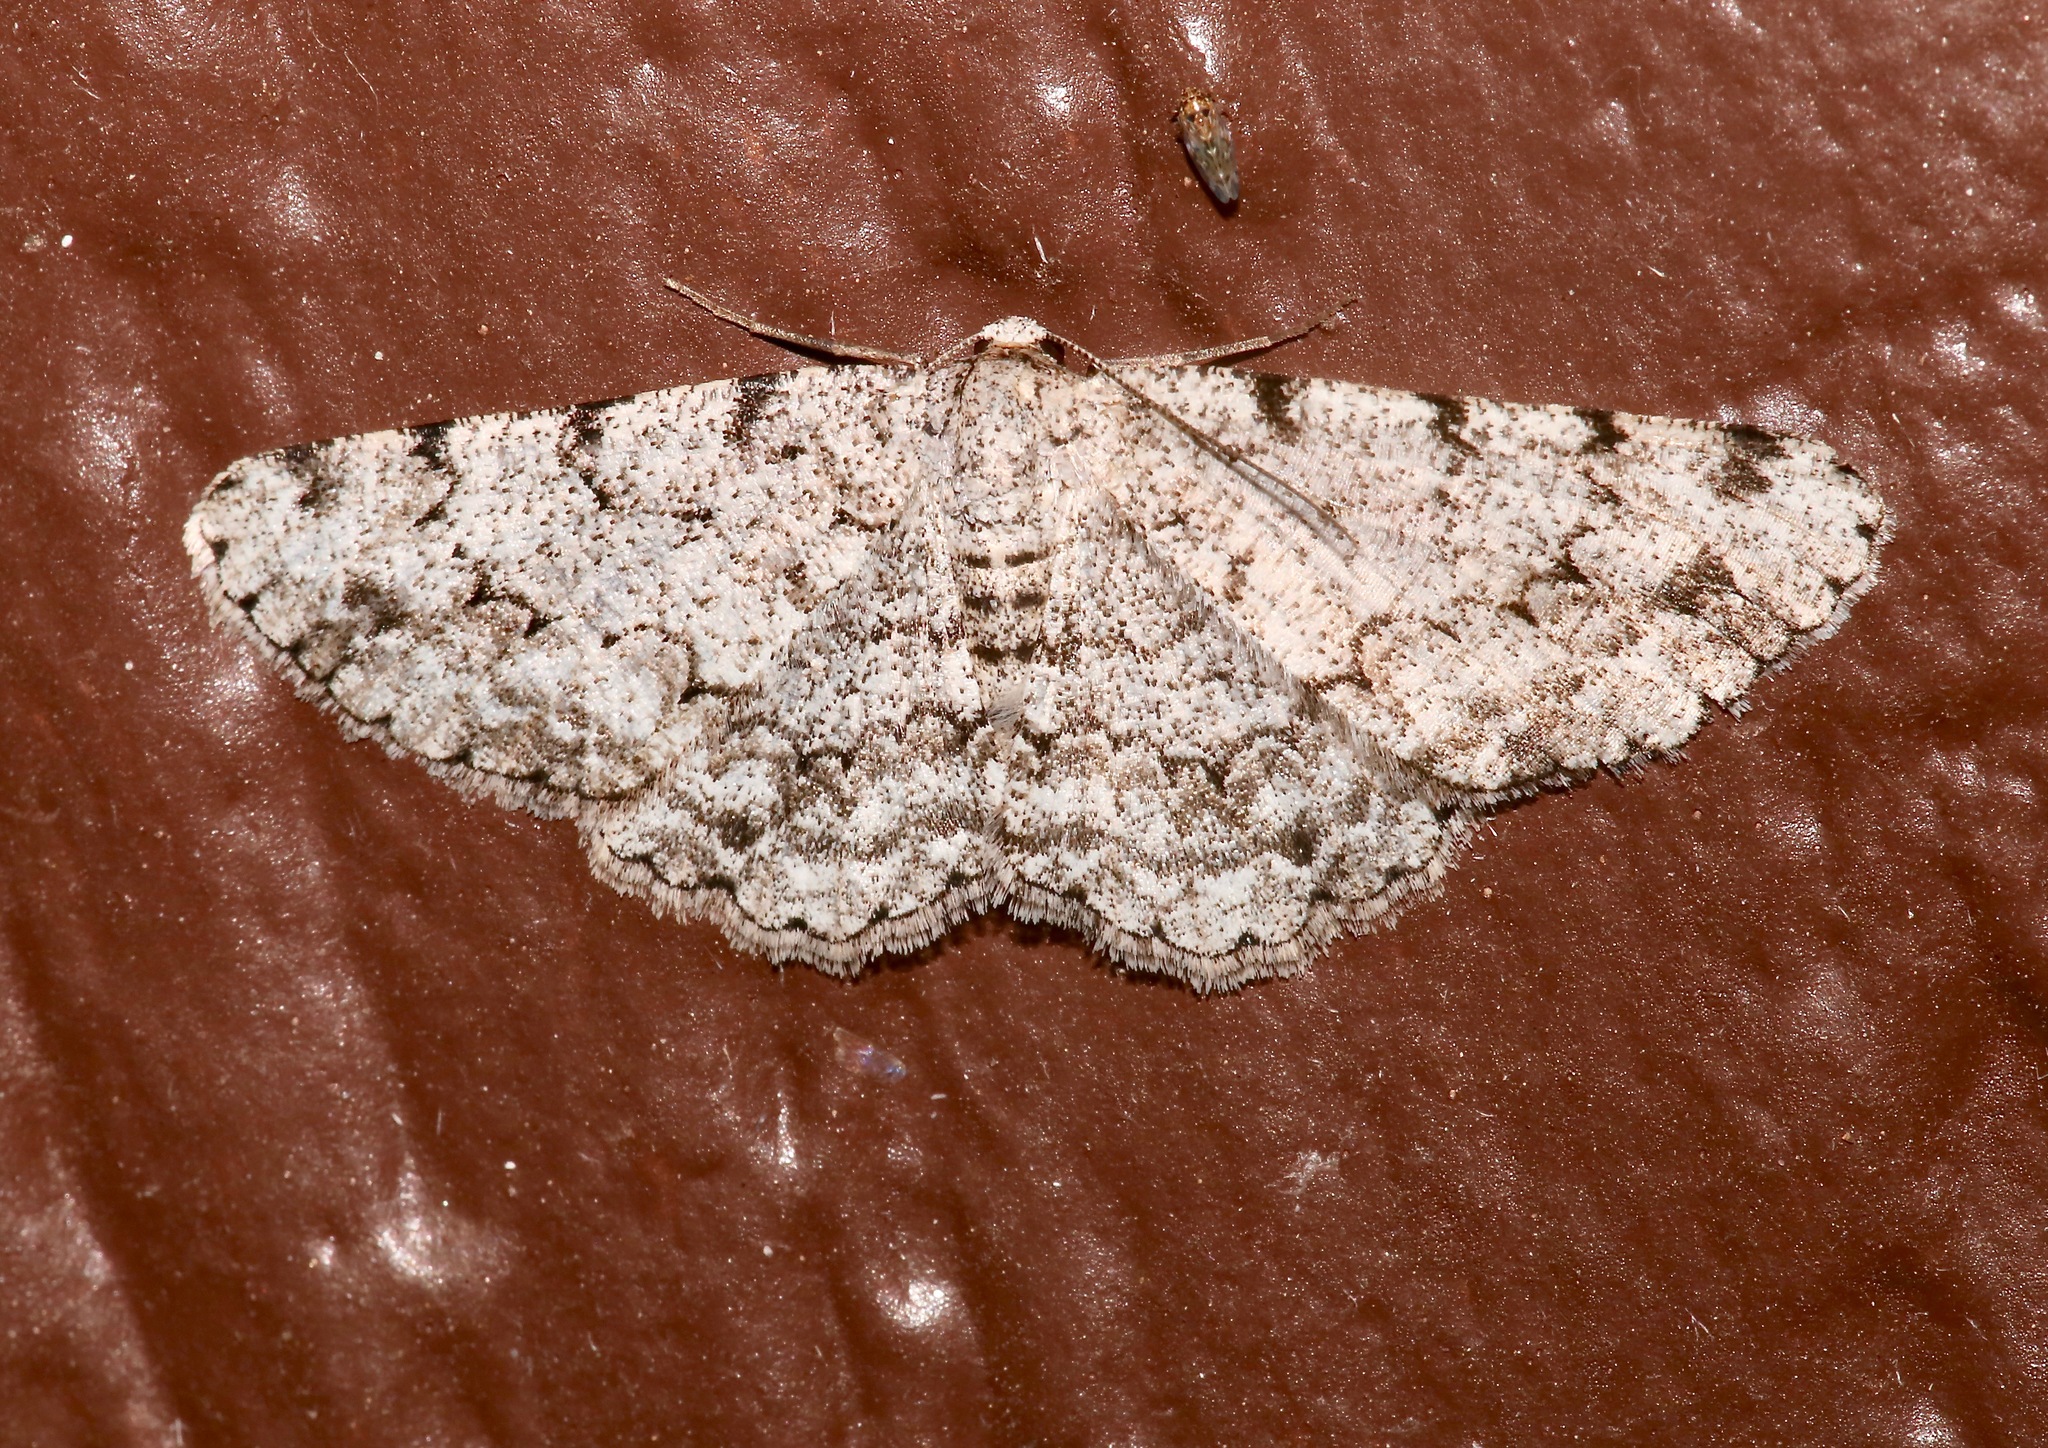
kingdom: Animalia
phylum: Arthropoda
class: Insecta
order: Lepidoptera
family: Geometridae
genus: Glena
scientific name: Glena grisearia
